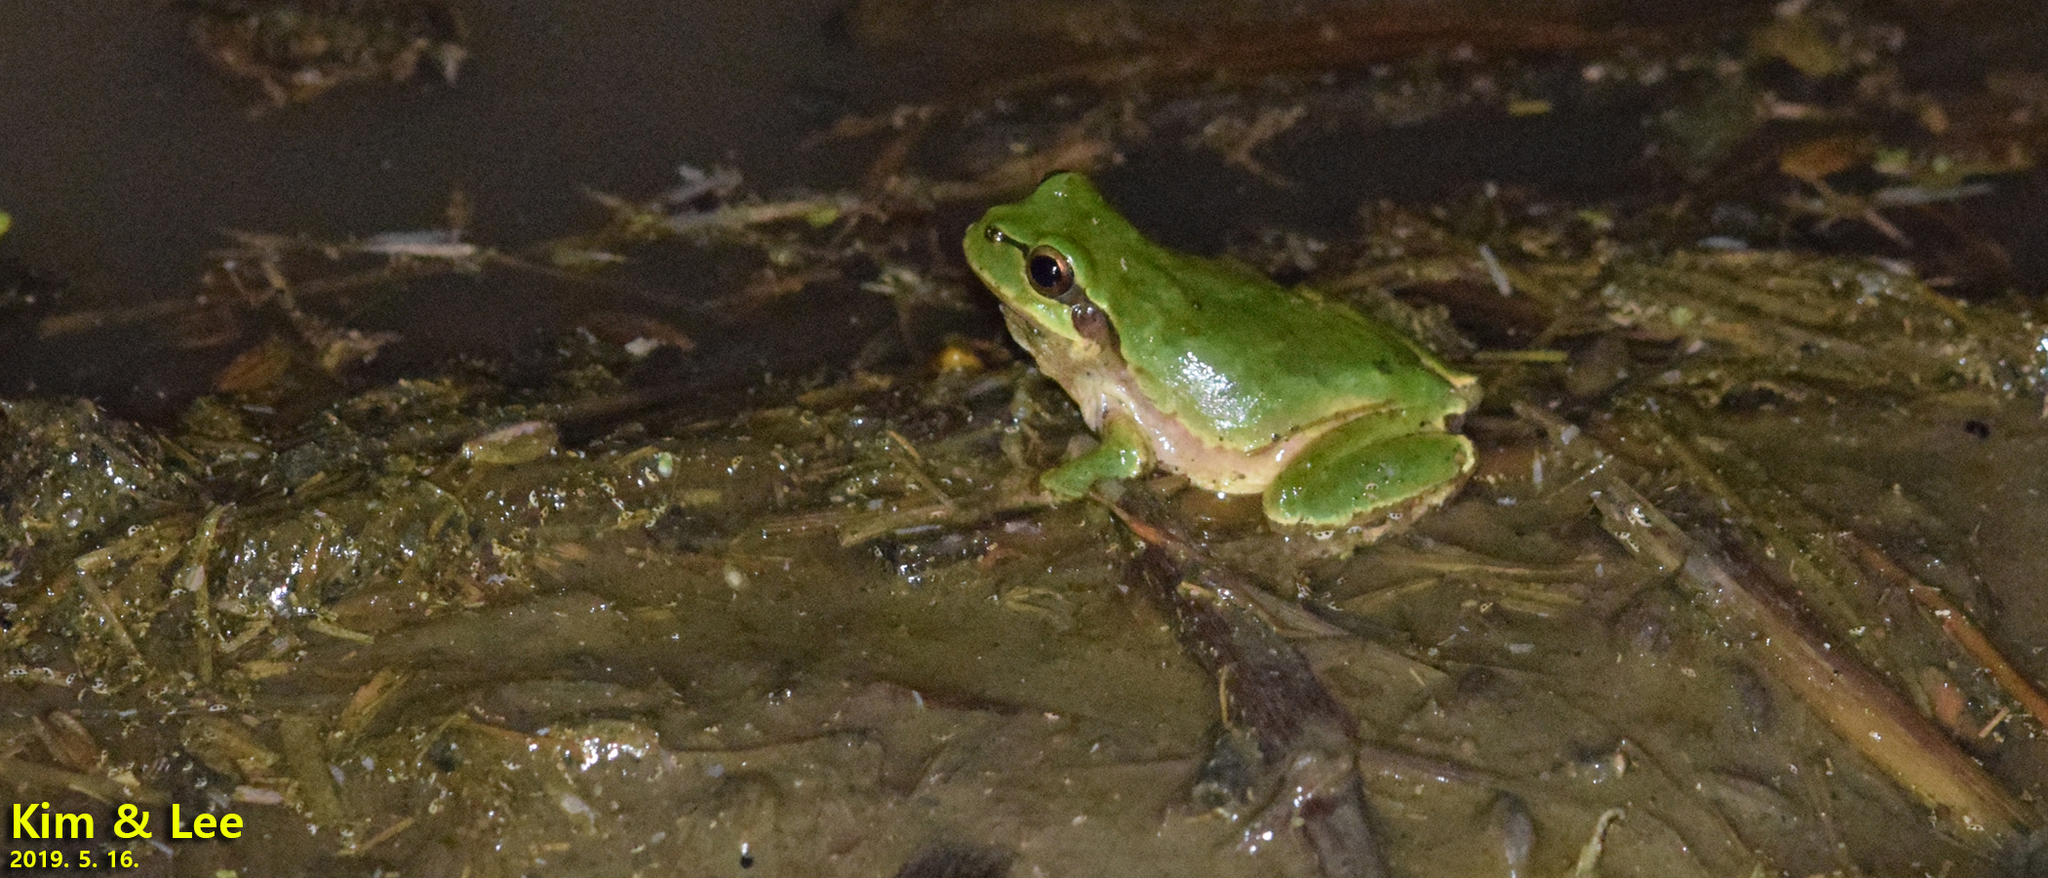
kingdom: Animalia
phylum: Chordata
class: Amphibia
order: Anura
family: Hylidae
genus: Dryophytes
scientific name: Dryophytes japonicus
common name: Japanese treefrog
